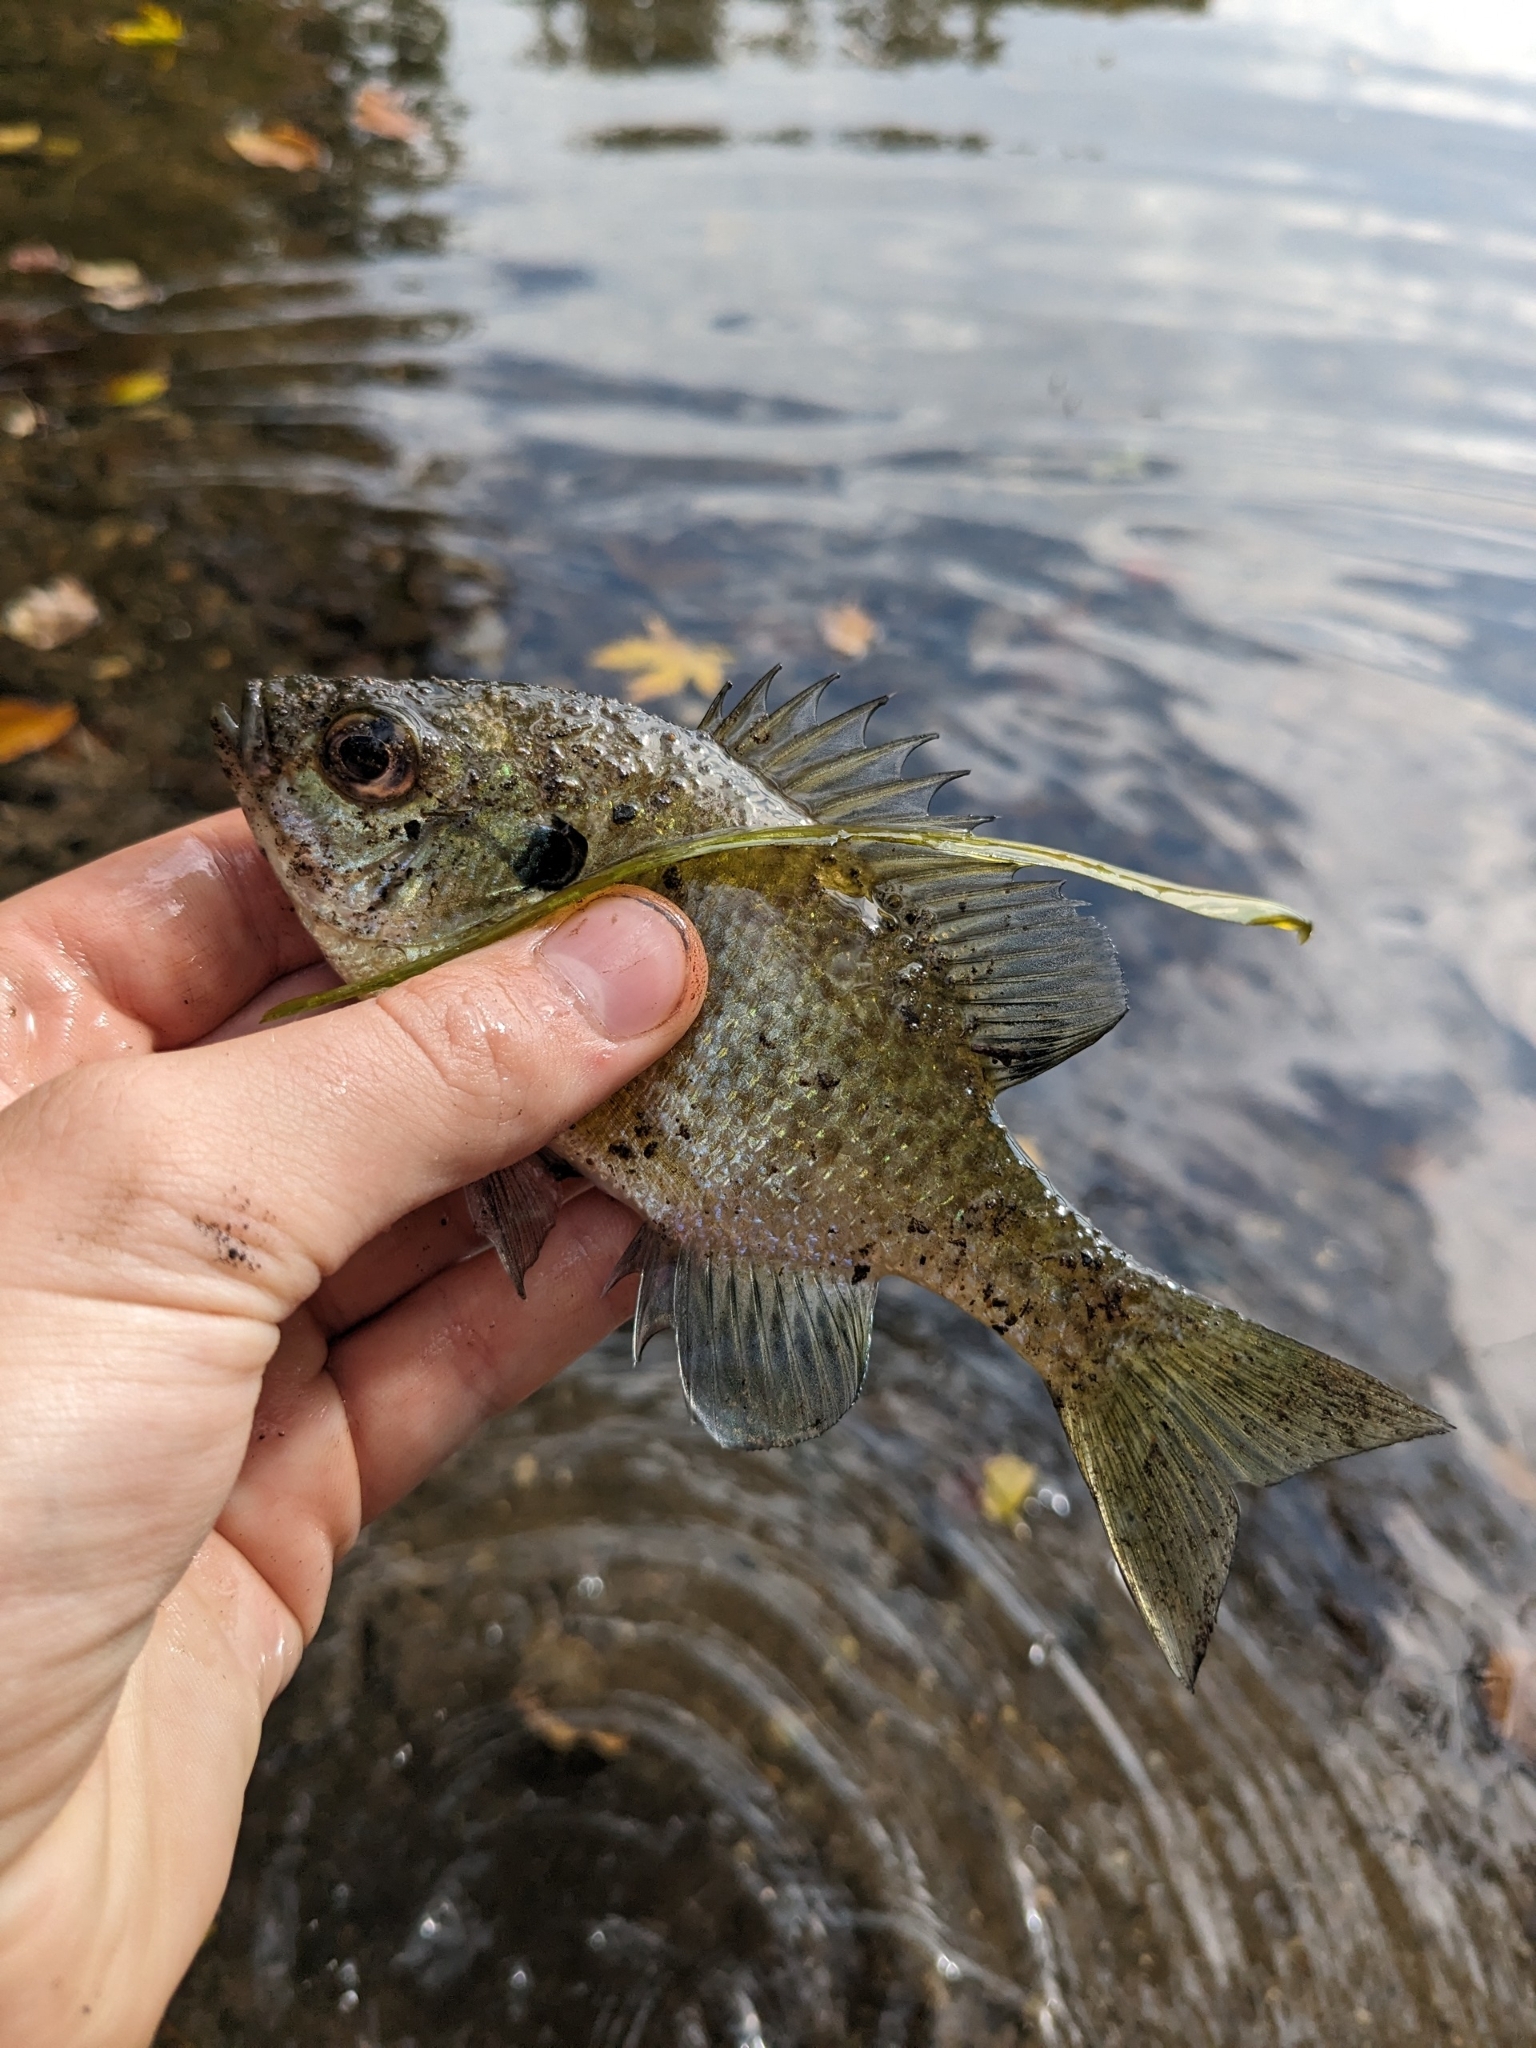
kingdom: Animalia
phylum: Chordata
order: Perciformes
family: Centrarchidae
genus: Lepomis
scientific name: Lepomis macrochirus
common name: Bluegill
